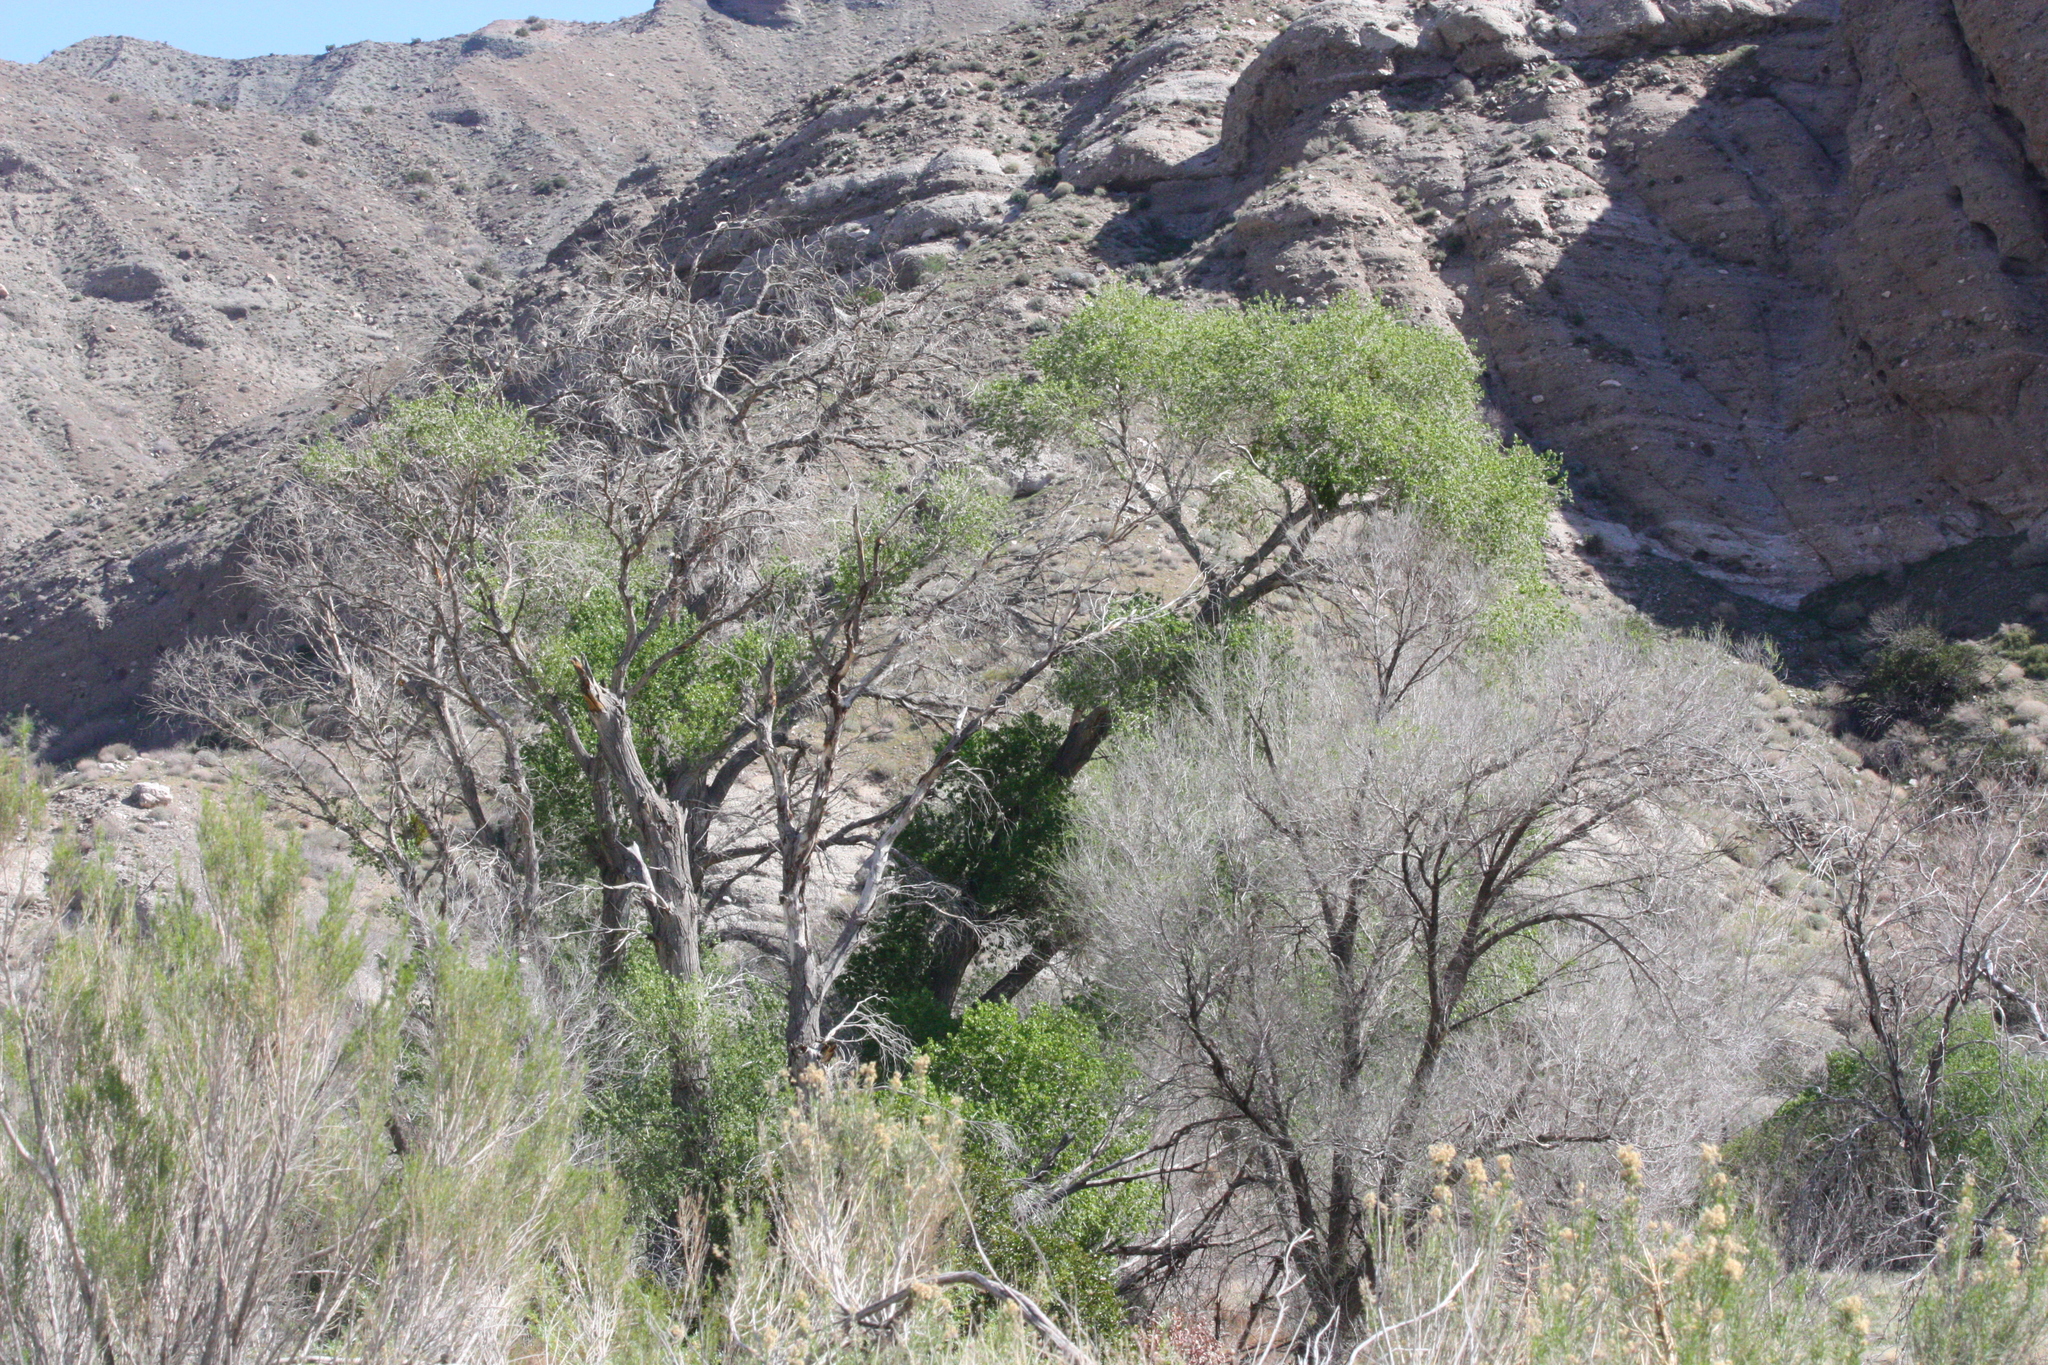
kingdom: Plantae
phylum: Tracheophyta
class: Magnoliopsida
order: Malpighiales
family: Salicaceae
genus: Populus
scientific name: Populus fremontii
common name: Fremont's cottonwood
